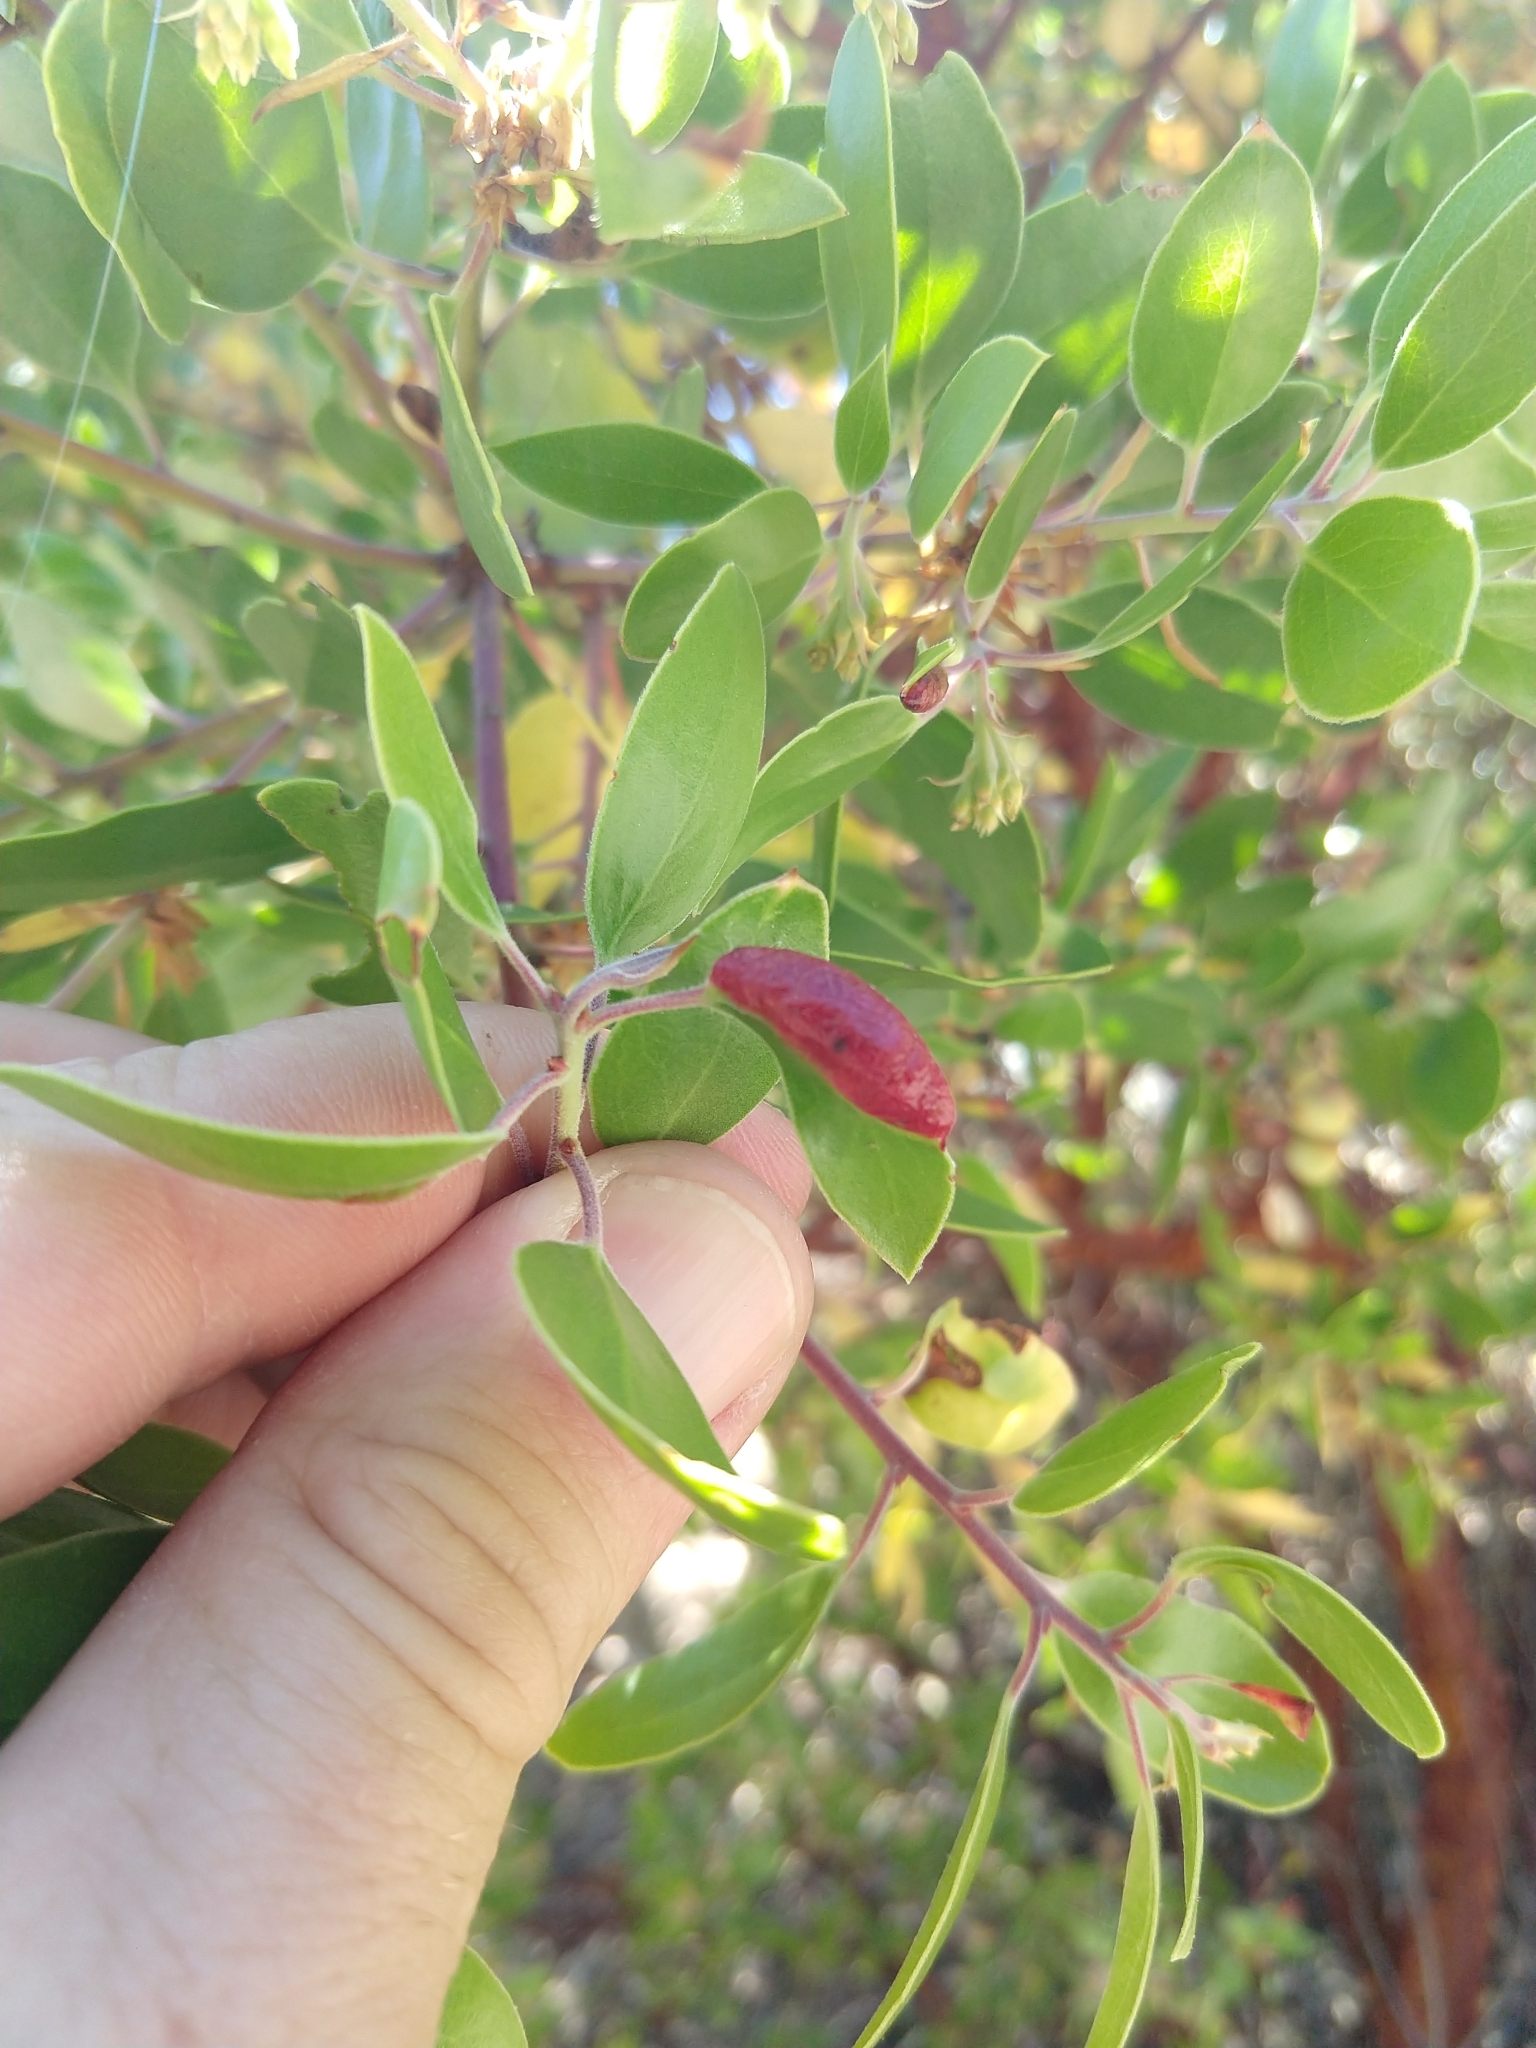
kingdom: Animalia
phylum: Arthropoda
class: Insecta
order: Hemiptera
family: Aphididae
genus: Tamalia
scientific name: Tamalia coweni
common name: Manzanita leafgall aphid
